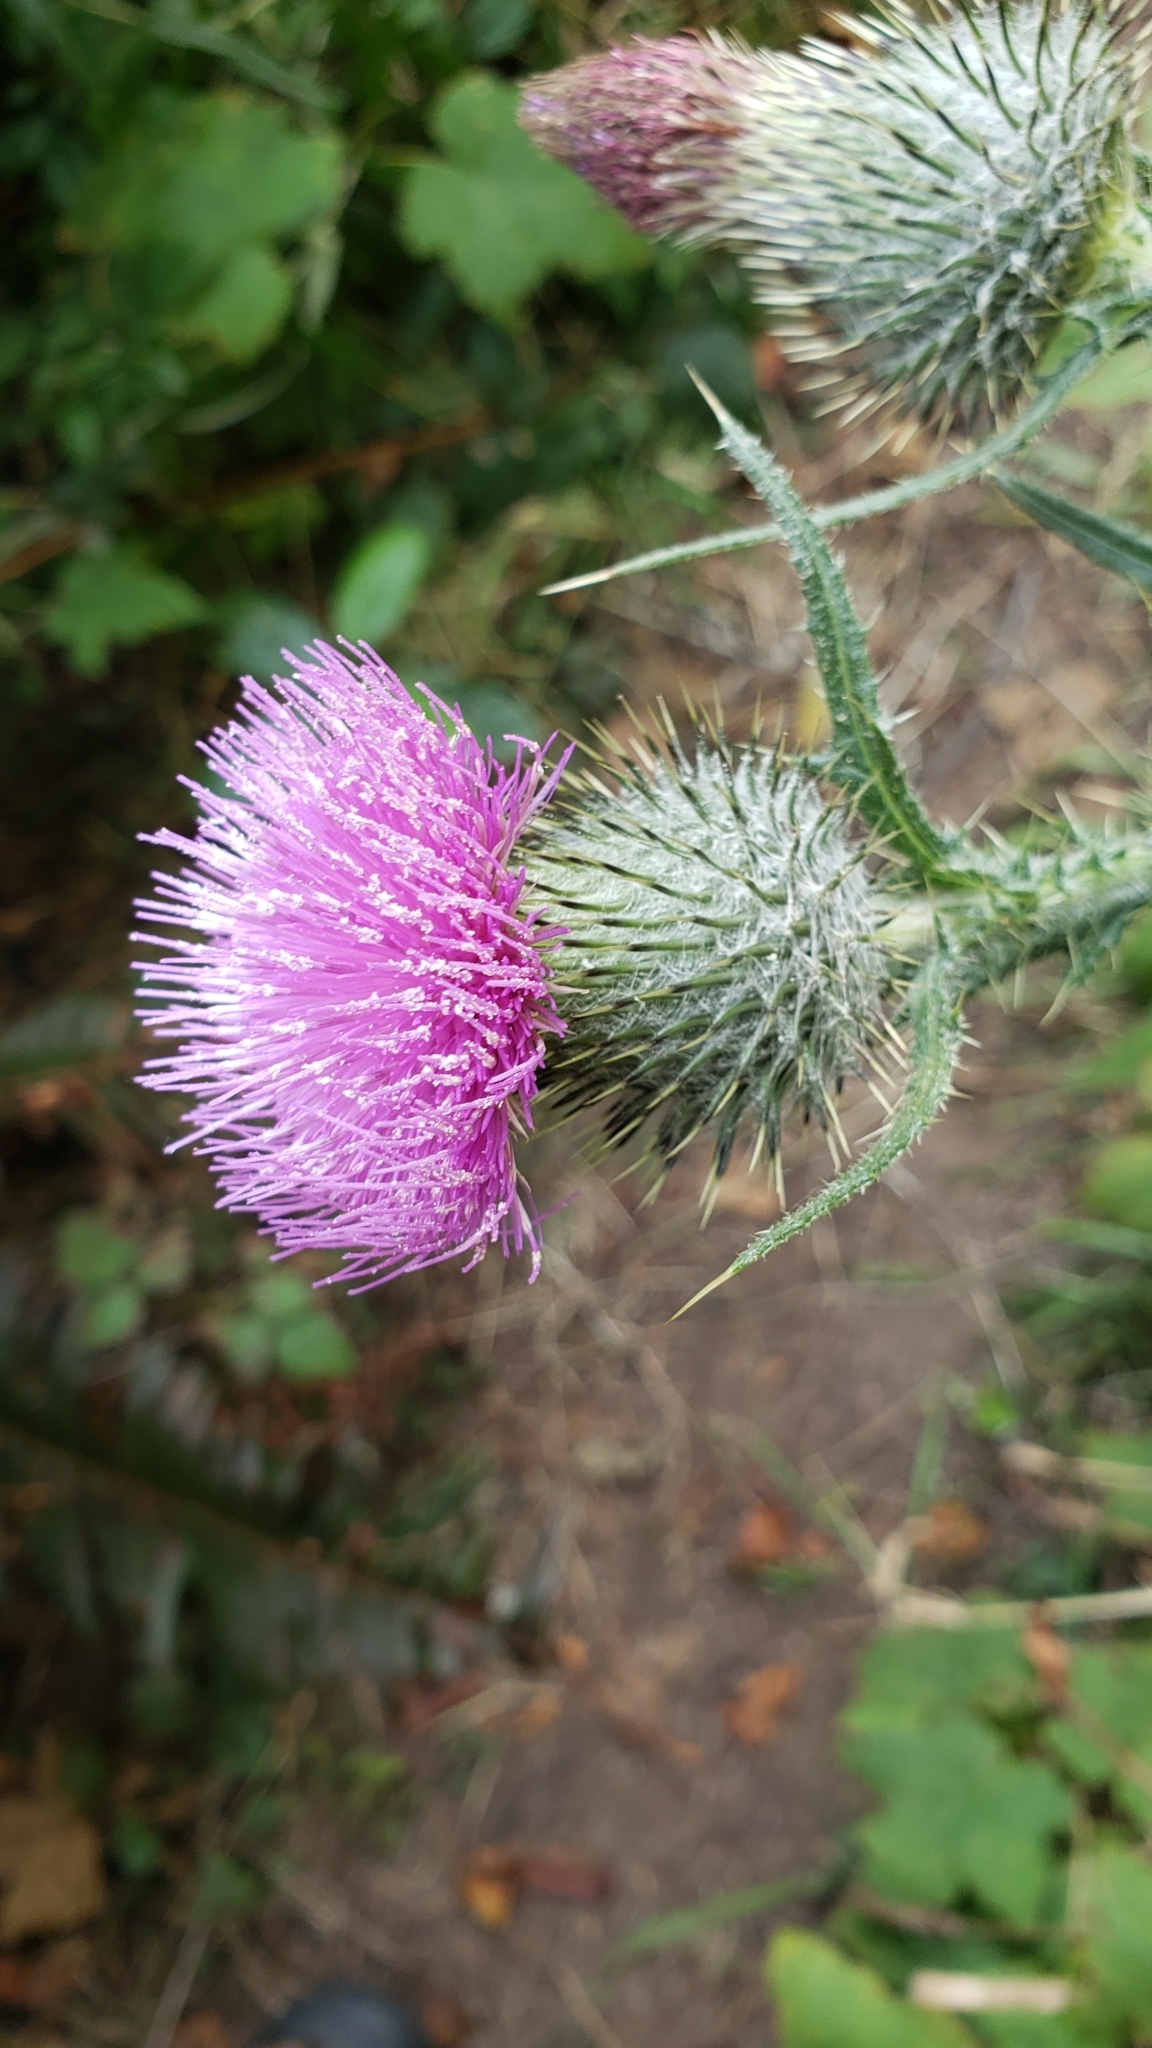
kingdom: Plantae
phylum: Tracheophyta
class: Magnoliopsida
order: Asterales
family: Asteraceae
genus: Cirsium
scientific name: Cirsium vulgare
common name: Bull thistle
